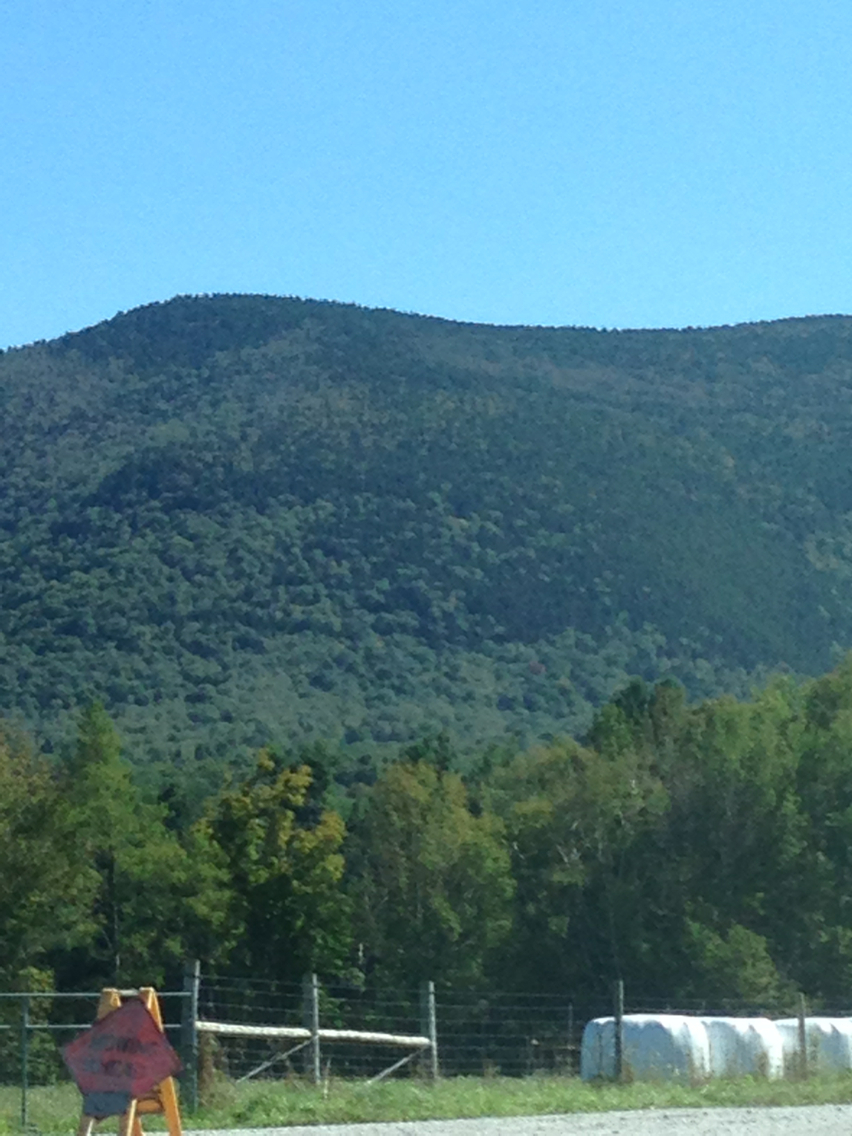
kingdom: Plantae
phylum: Tracheophyta
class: Pinopsida
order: Pinales
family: Pinaceae
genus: Picea
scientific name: Picea rubens
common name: Red spruce
